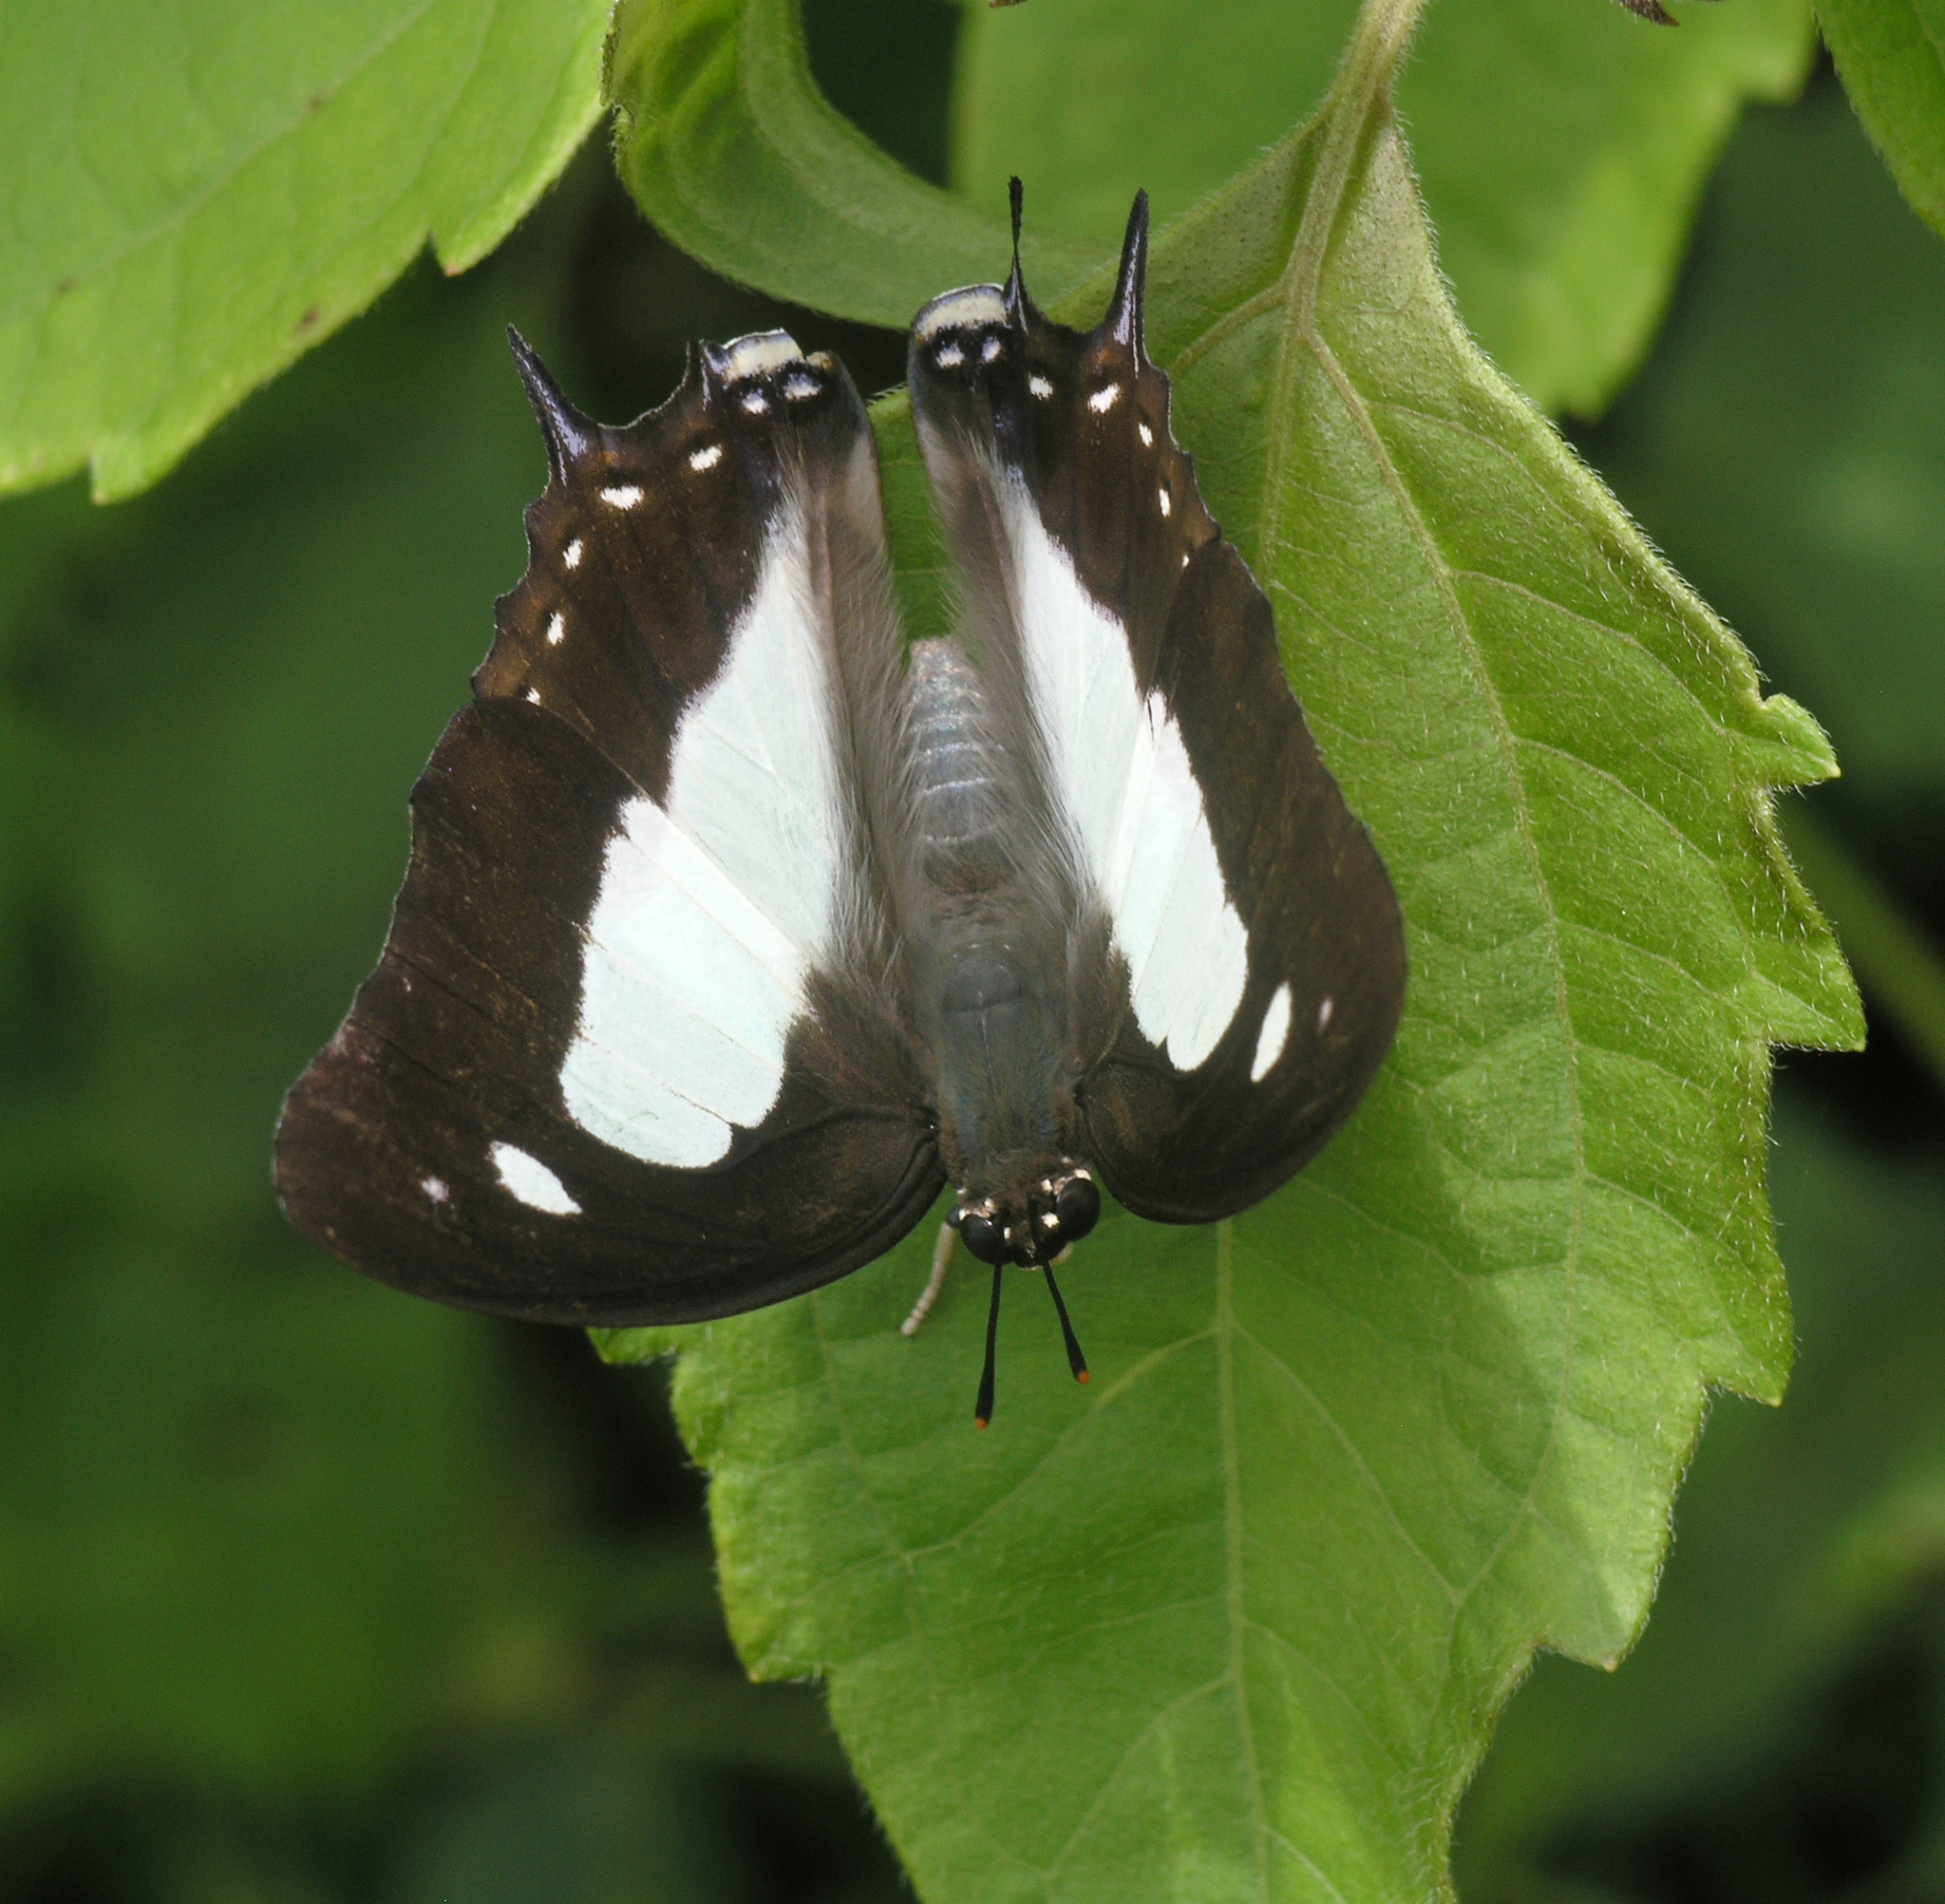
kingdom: Animalia
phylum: Arthropoda
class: Insecta
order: Lepidoptera
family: Nymphalidae
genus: Polyura
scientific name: Polyura arja
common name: Pallid nawab
